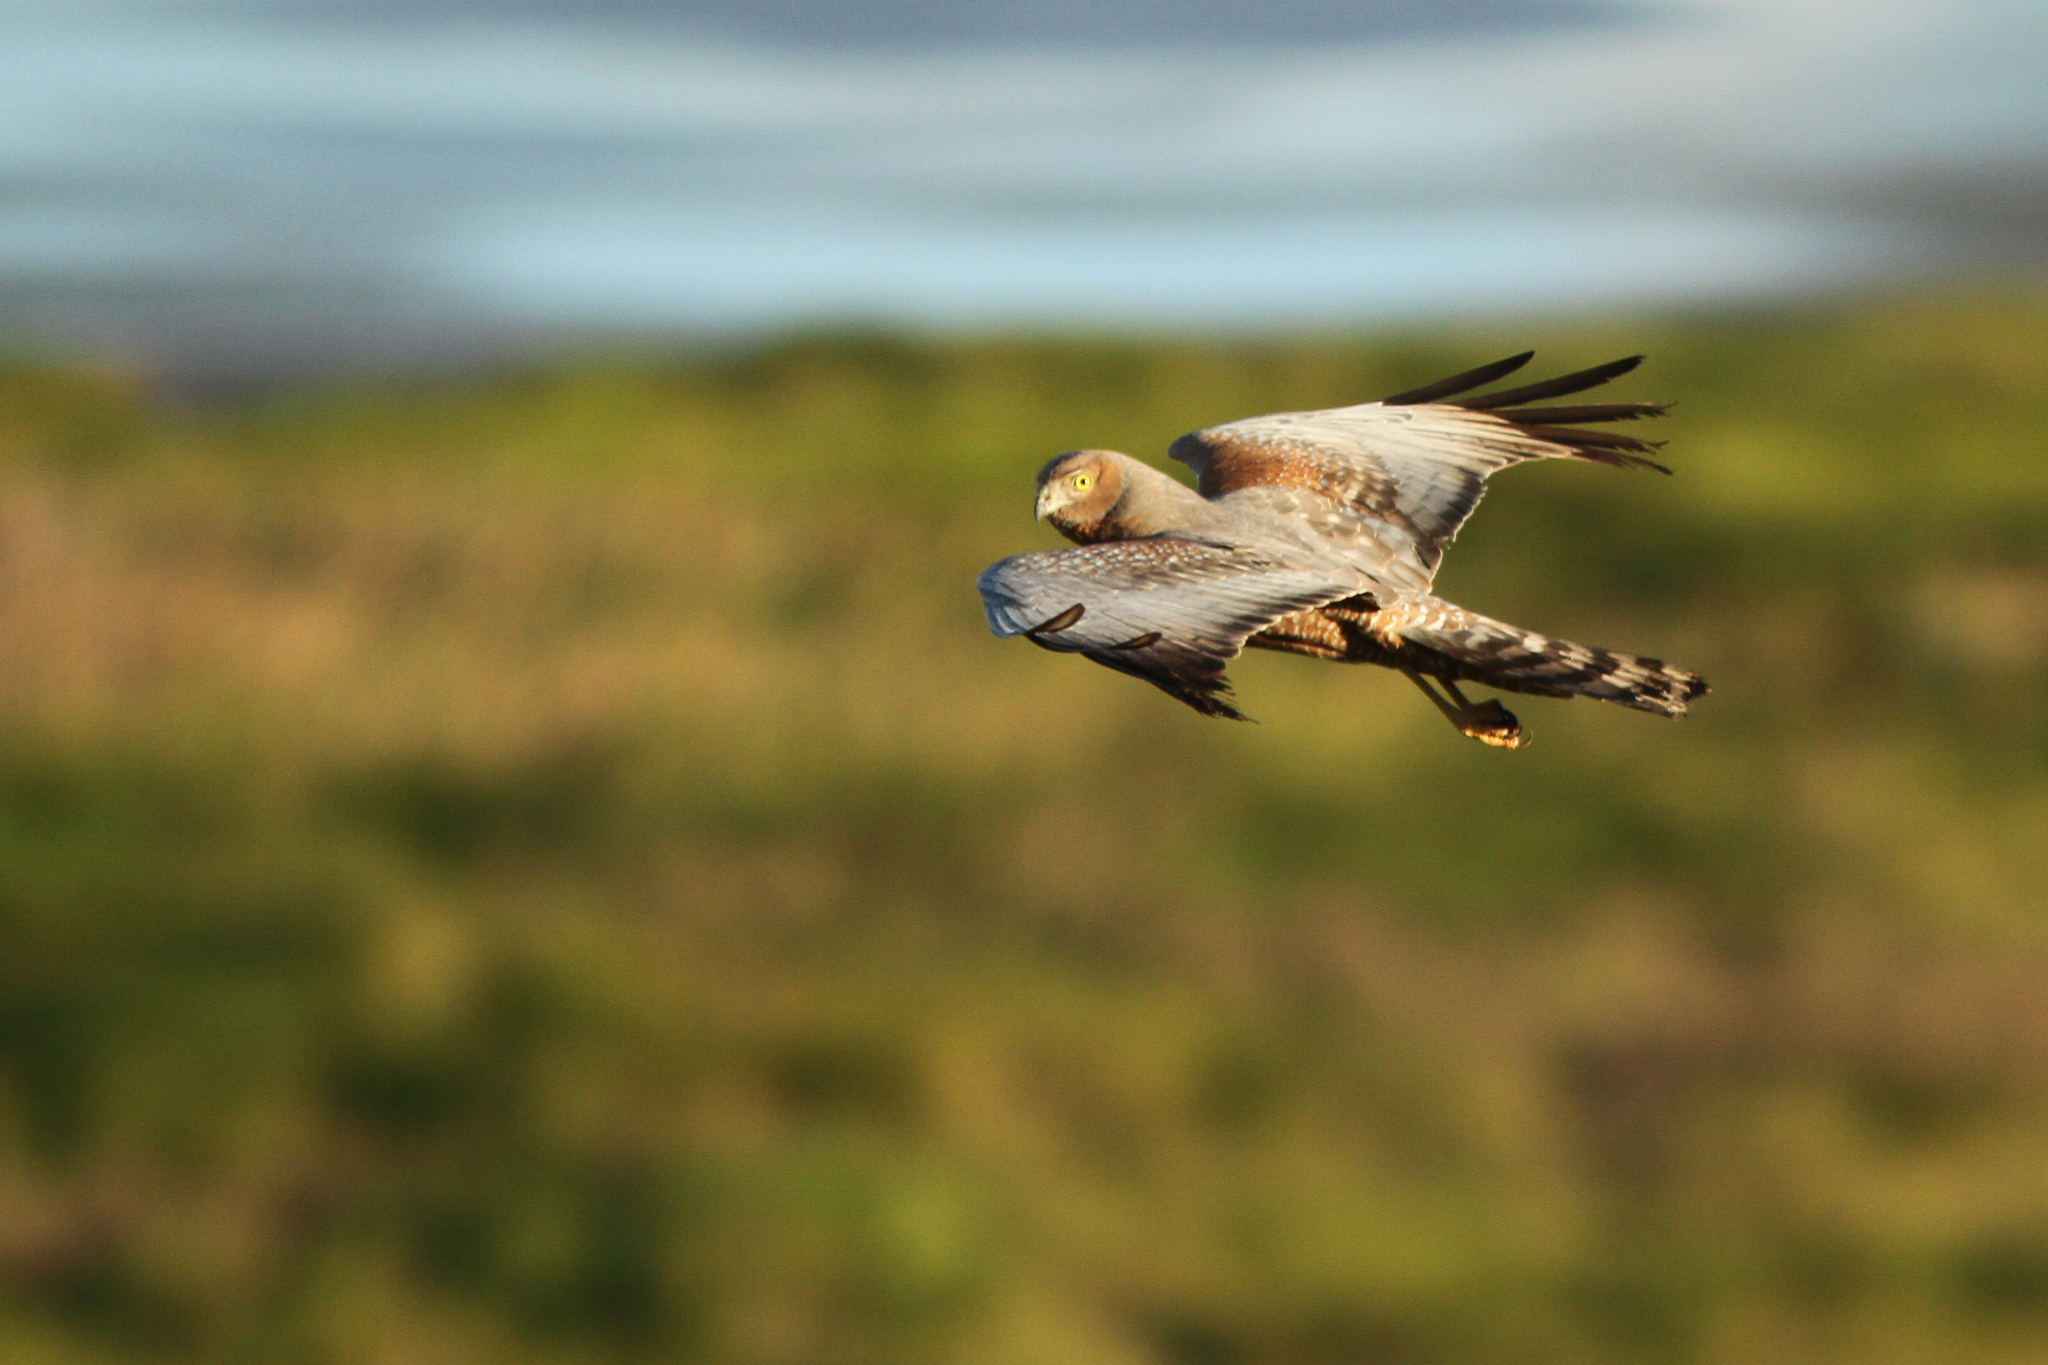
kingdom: Animalia
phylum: Chordata
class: Aves
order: Accipitriformes
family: Accipitridae
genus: Circus
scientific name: Circus assimilis
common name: Spotted harrier
